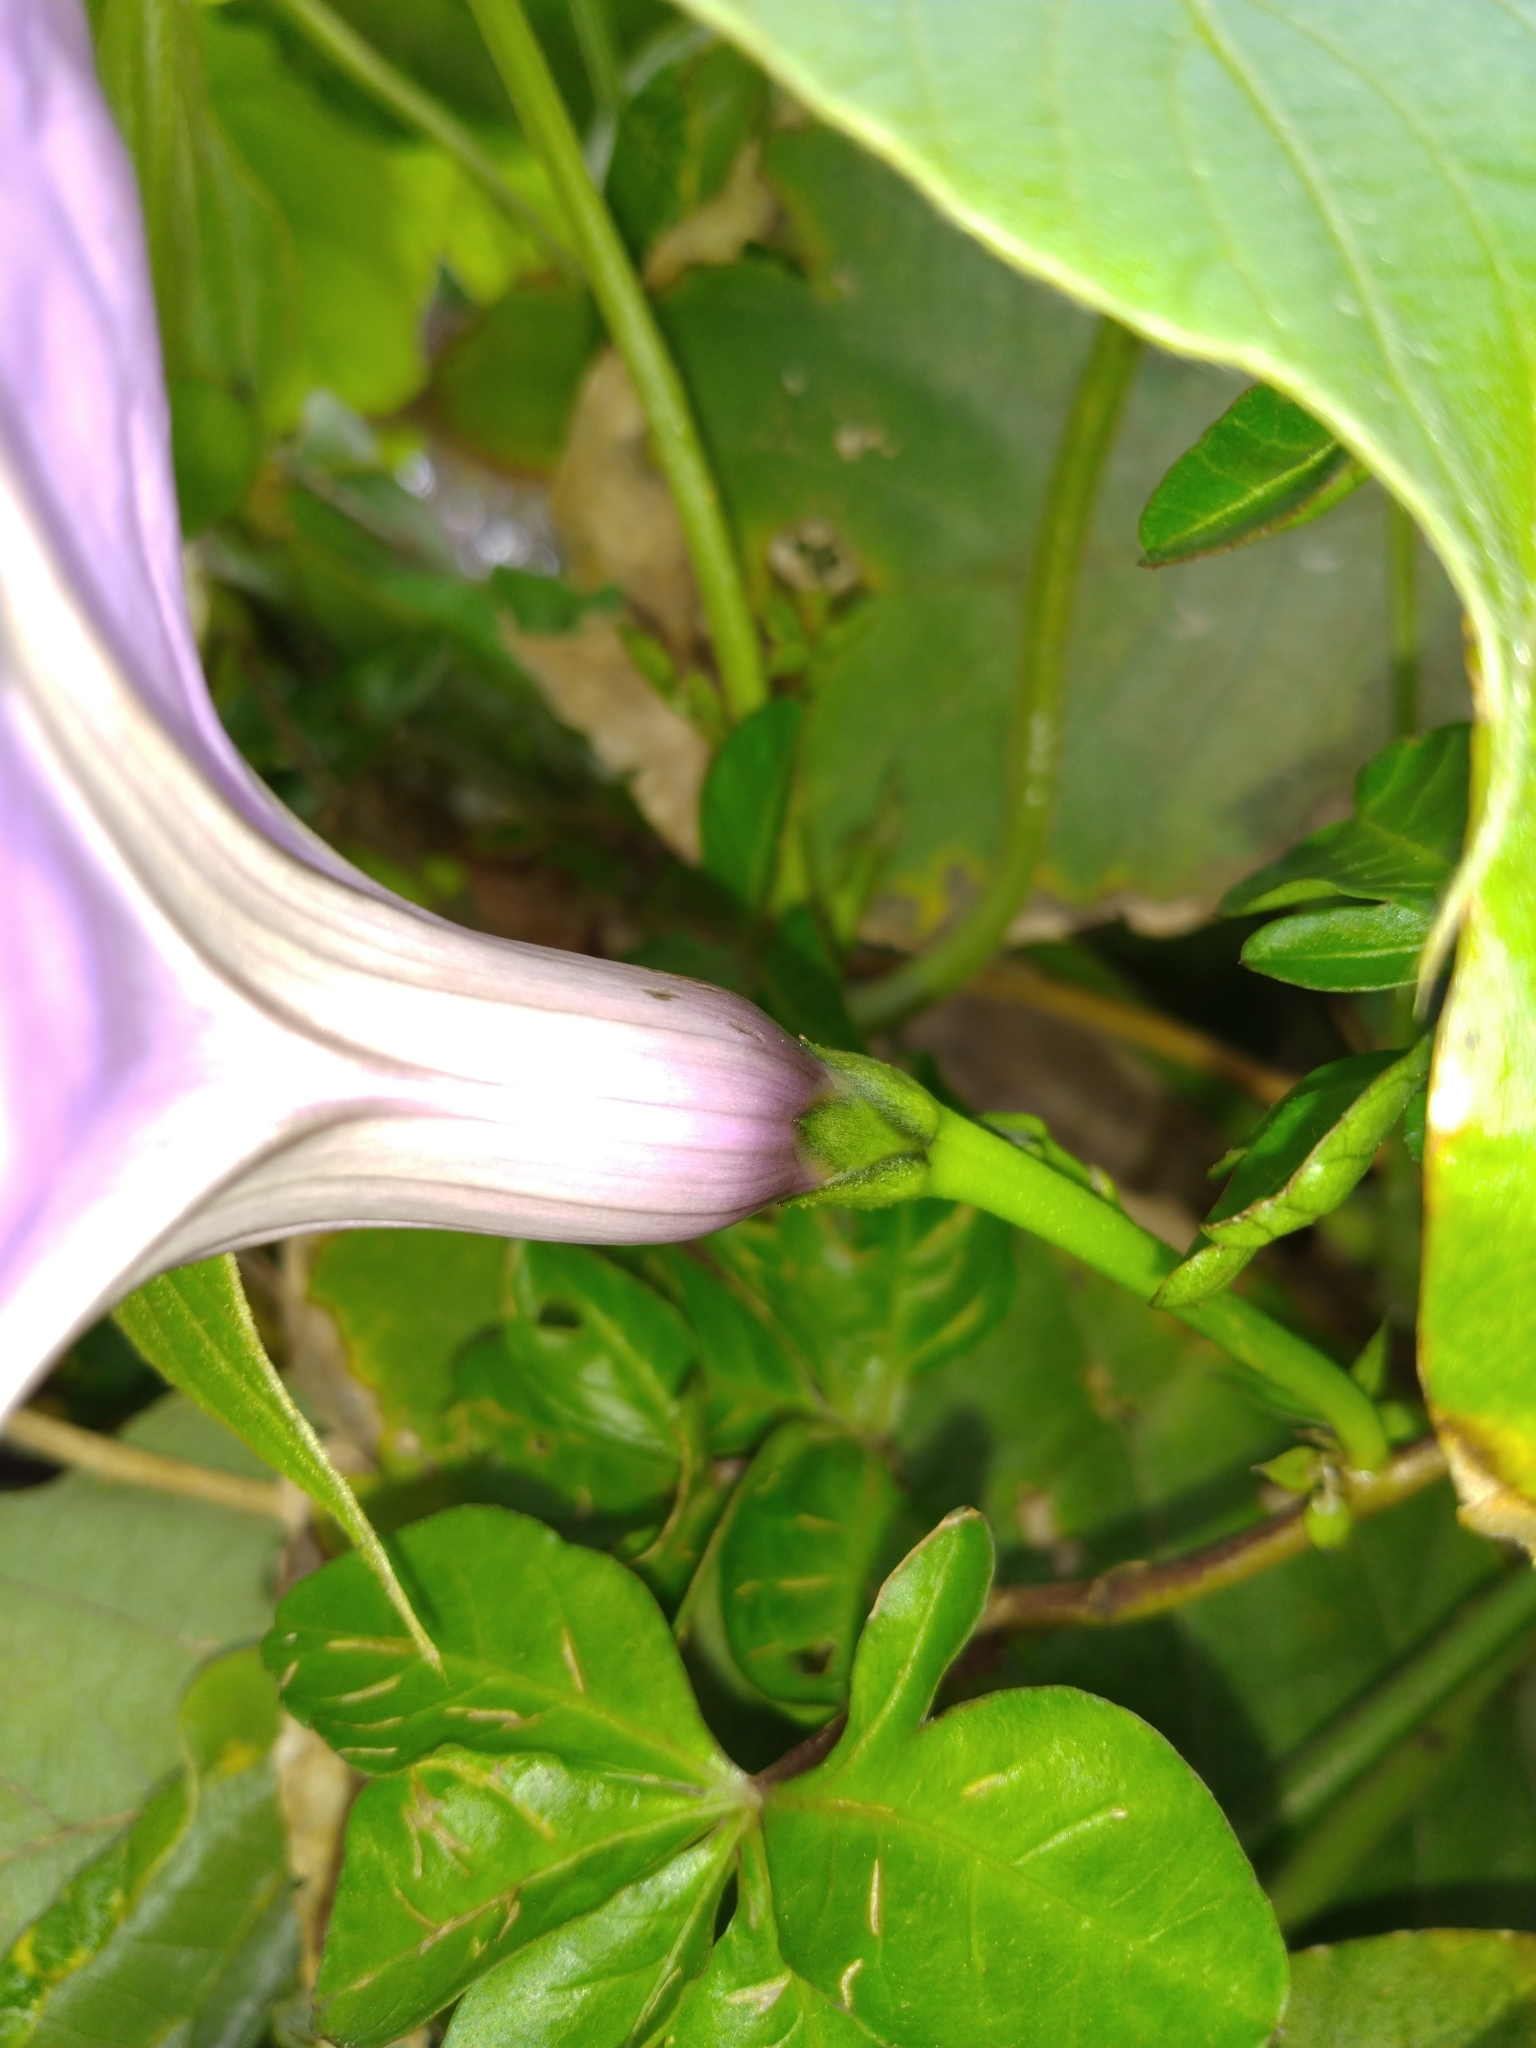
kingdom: Plantae
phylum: Tracheophyta
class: Magnoliopsida
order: Solanales
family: Convolvulaceae
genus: Ipomoea
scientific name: Ipomoea cairica
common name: Mile a minute vine
